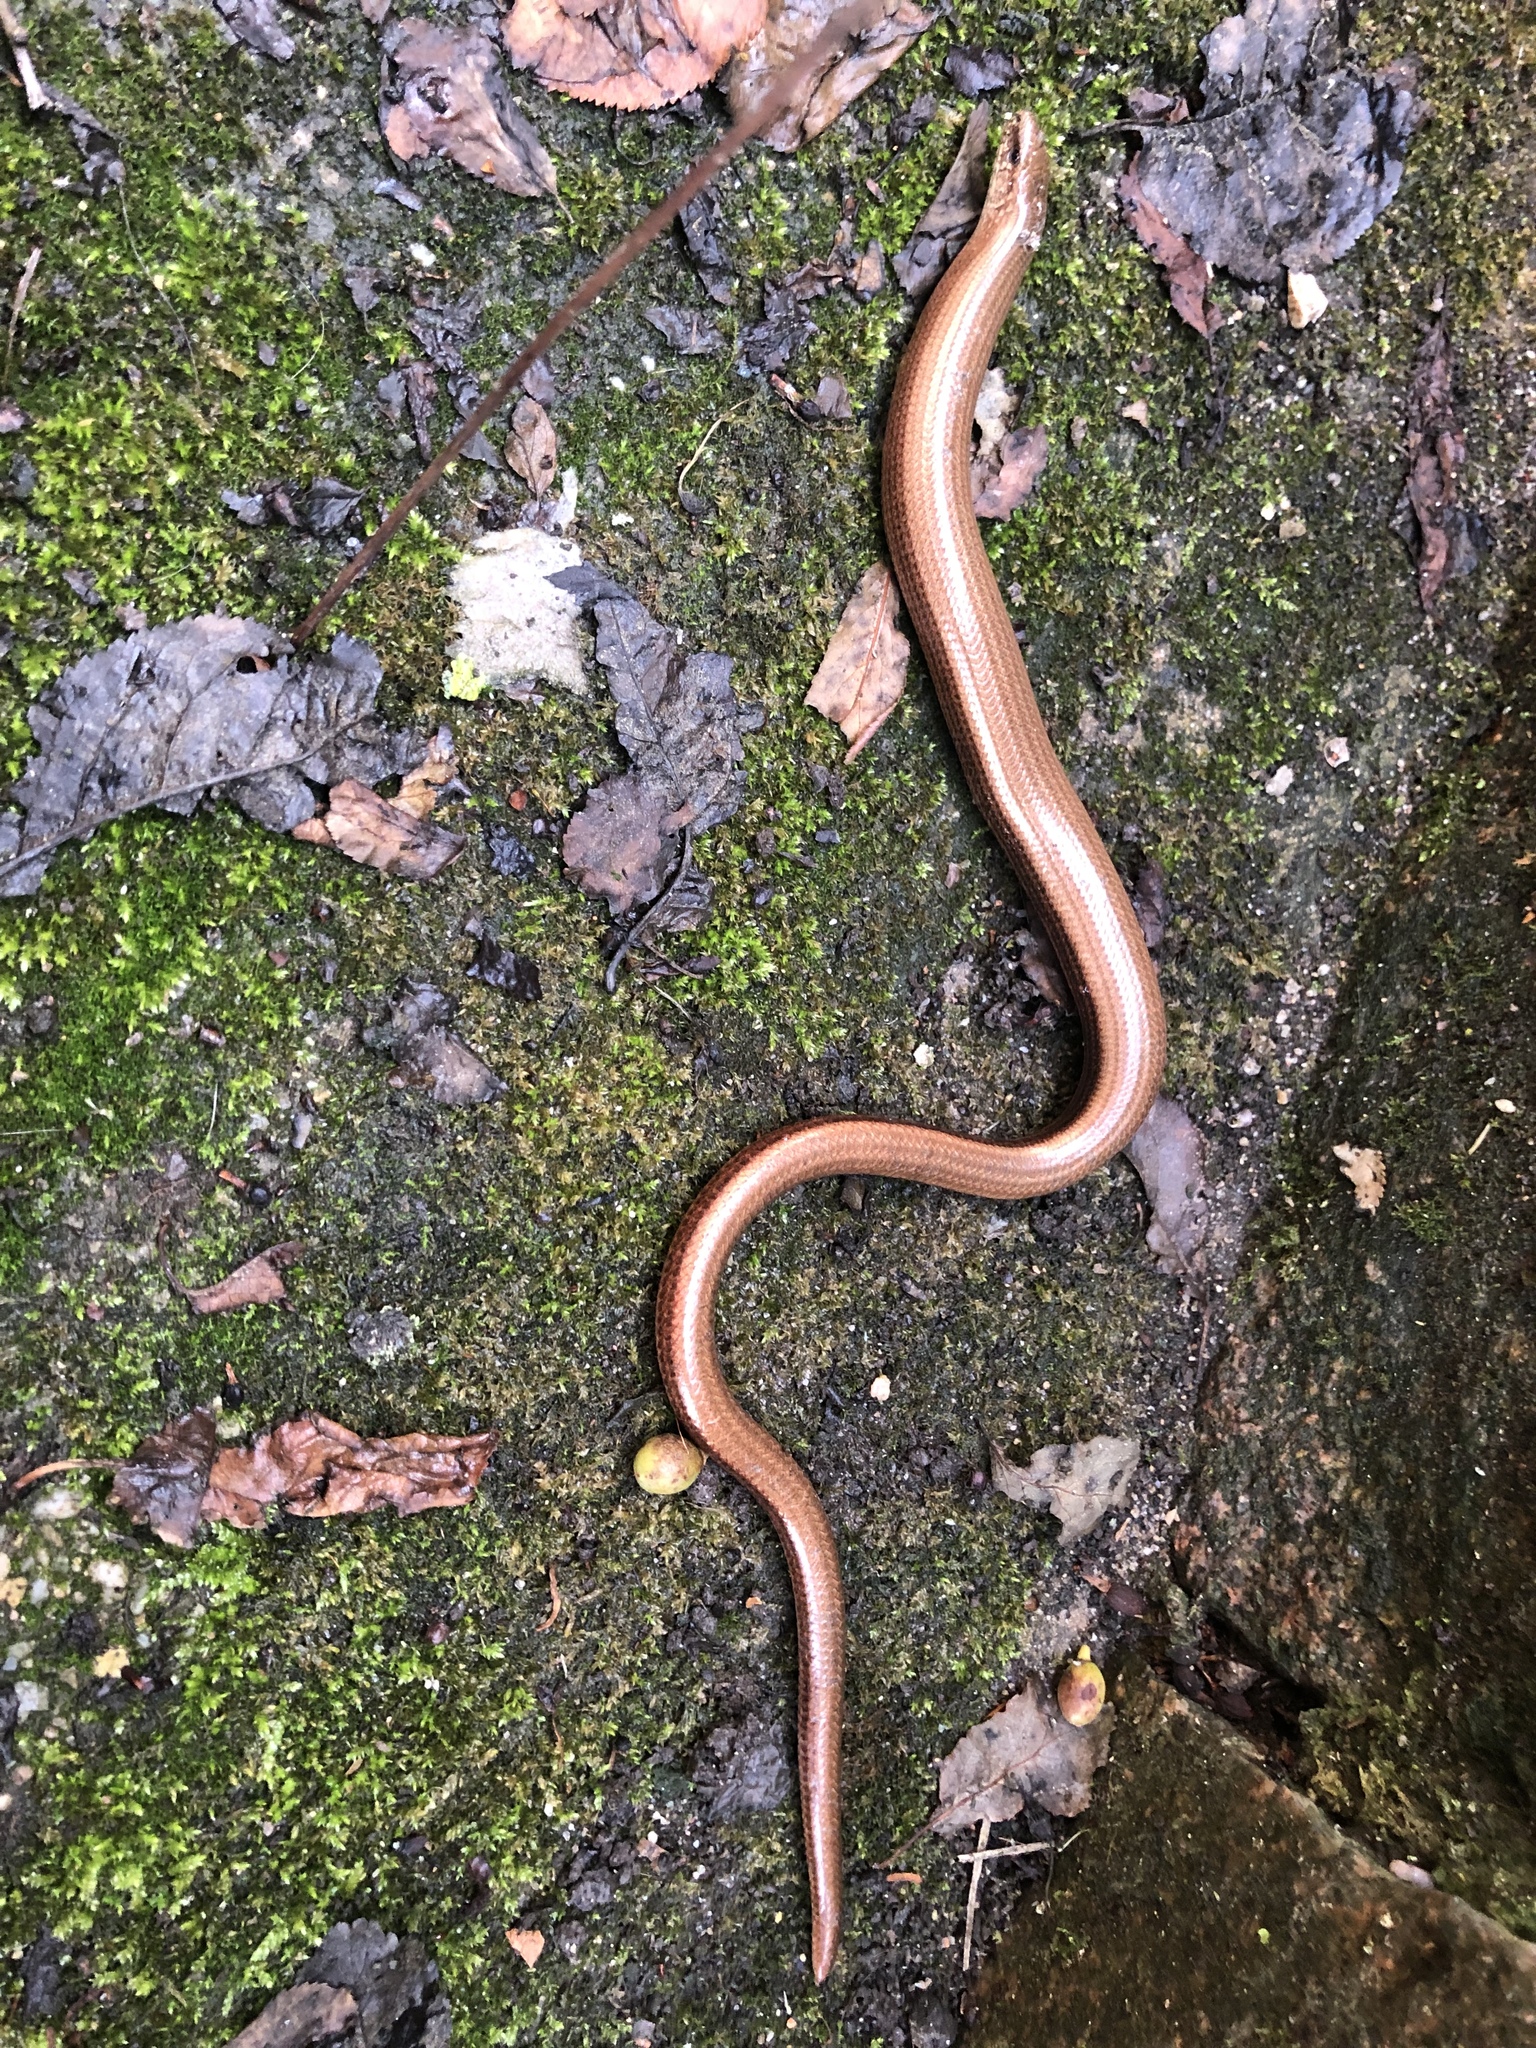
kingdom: Animalia
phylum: Chordata
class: Squamata
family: Anguidae
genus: Anguis
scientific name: Anguis fragilis
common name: Slow worm
